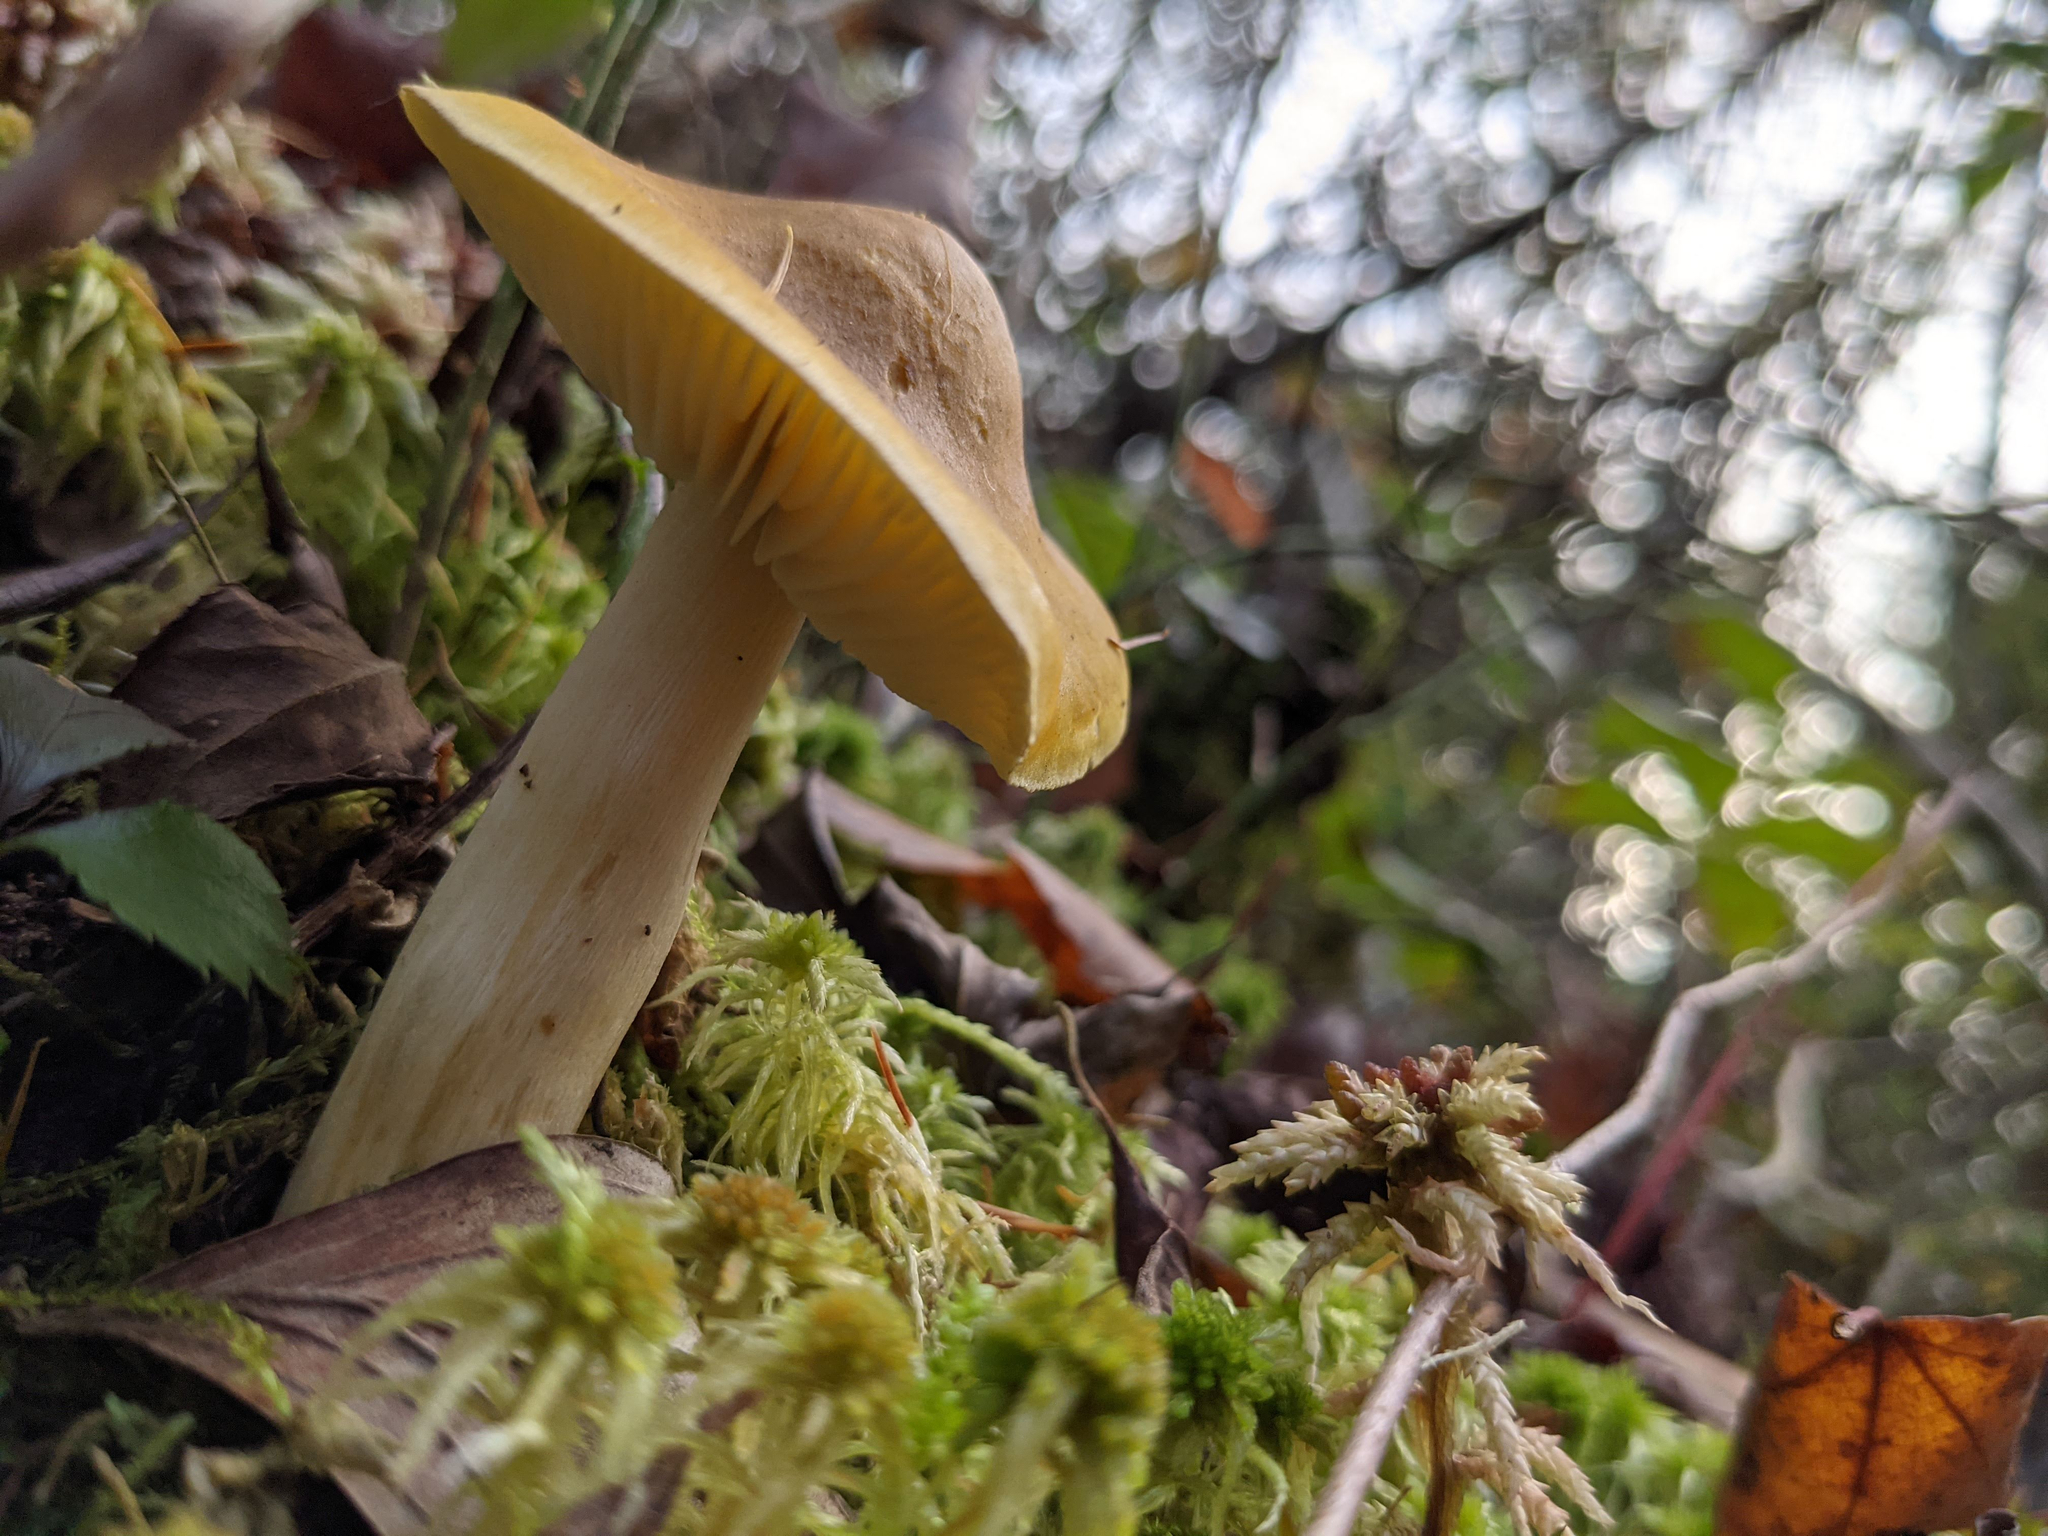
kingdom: Fungi
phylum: Basidiomycota
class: Agaricomycetes
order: Agaricales
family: Tricholomataceae
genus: Tricholoma
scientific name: Tricholoma equestre
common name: Yellow knight
